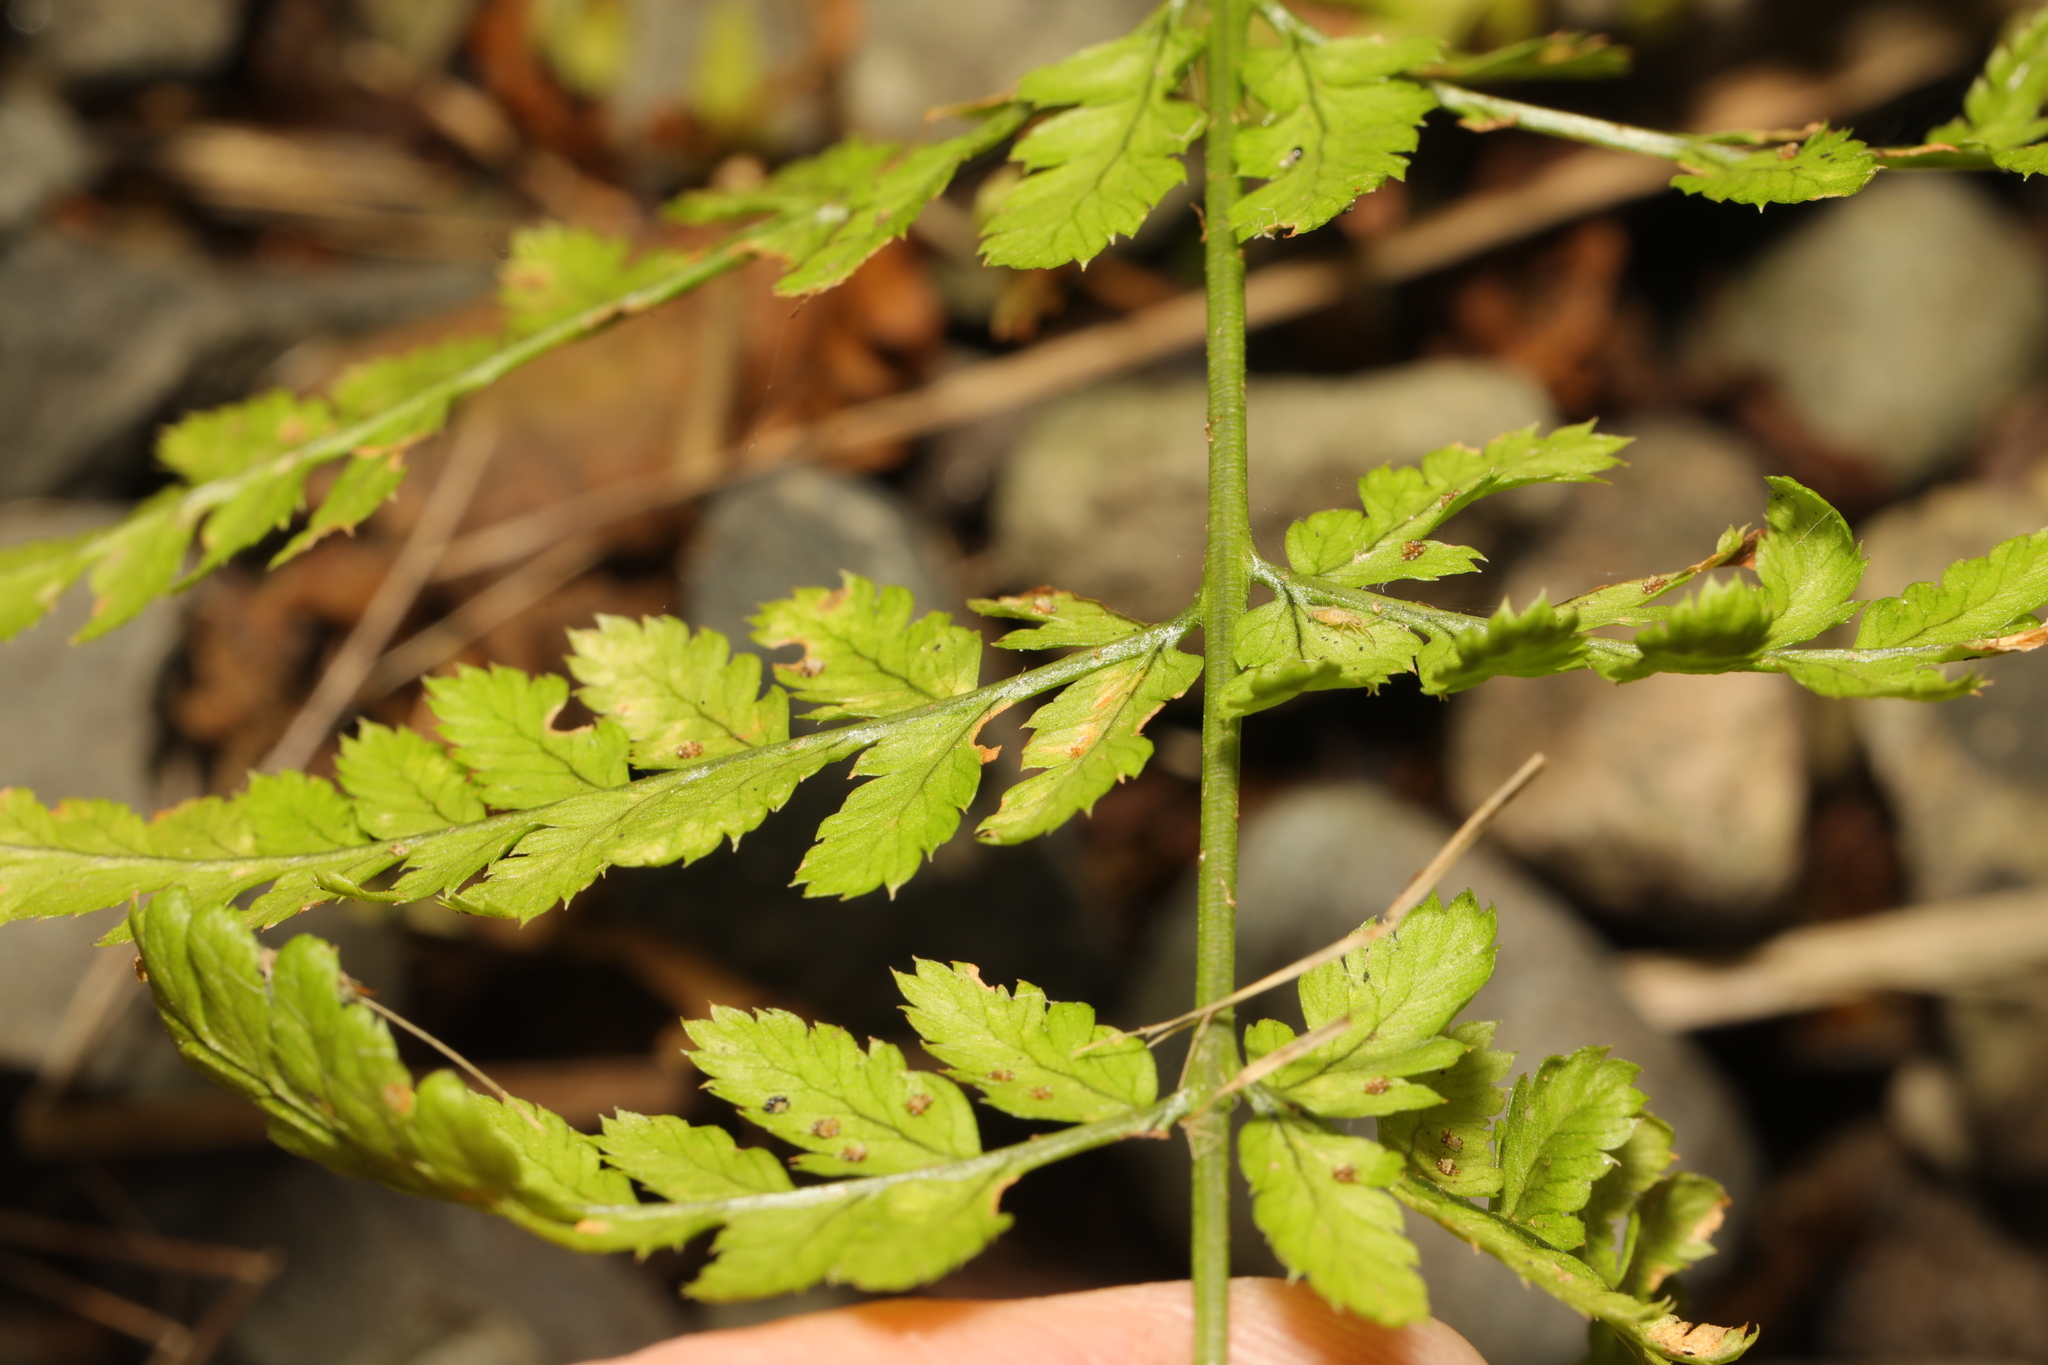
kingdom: Plantae
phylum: Tracheophyta
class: Polypodiopsida
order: Polypodiales
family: Dryopteridaceae
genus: Dryopteris
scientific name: Dryopteris dilatata
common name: Broad buckler-fern
